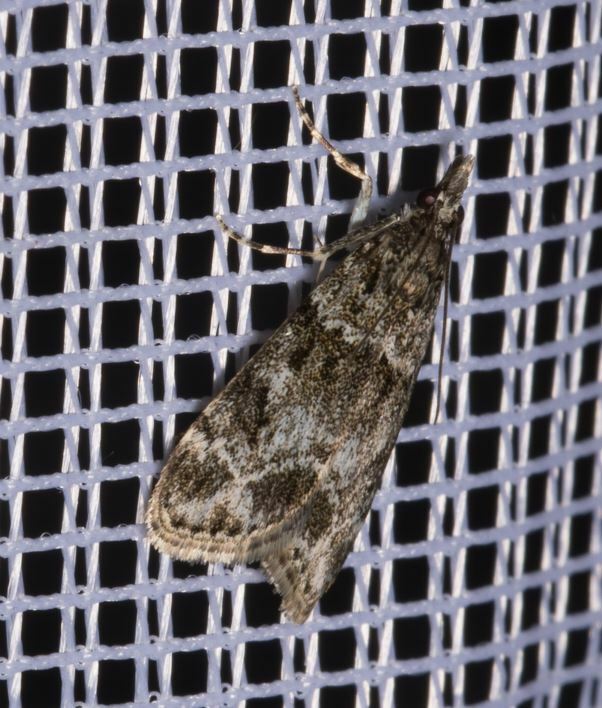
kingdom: Animalia
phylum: Arthropoda
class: Insecta
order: Lepidoptera
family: Crambidae
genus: Eudonia
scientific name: Eudonia mercurella
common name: Small grey
